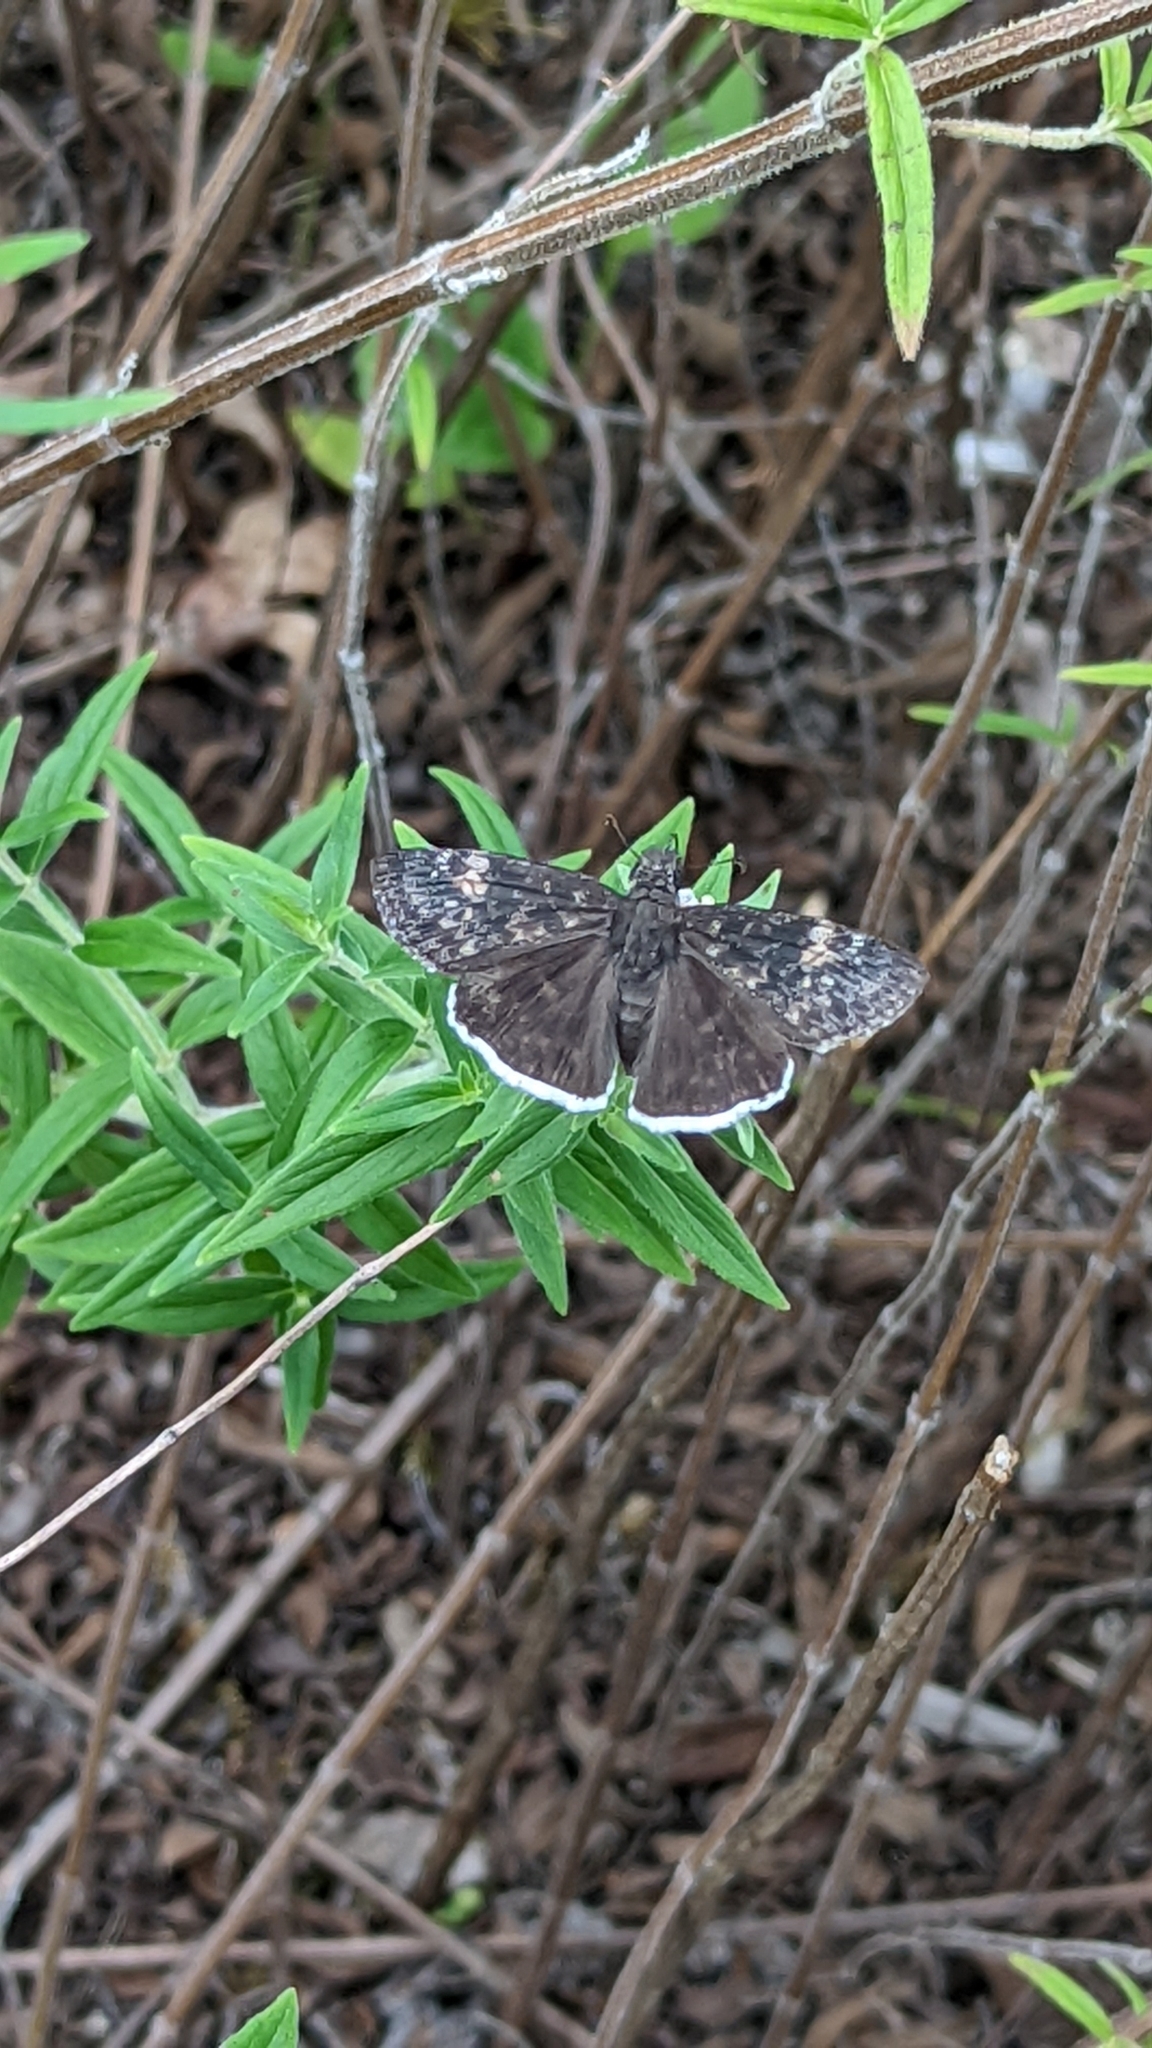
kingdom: Animalia
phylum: Arthropoda
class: Insecta
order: Lepidoptera
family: Hesperiidae
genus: Erynnis
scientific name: Erynnis funeralis
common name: Funereal duskywing
